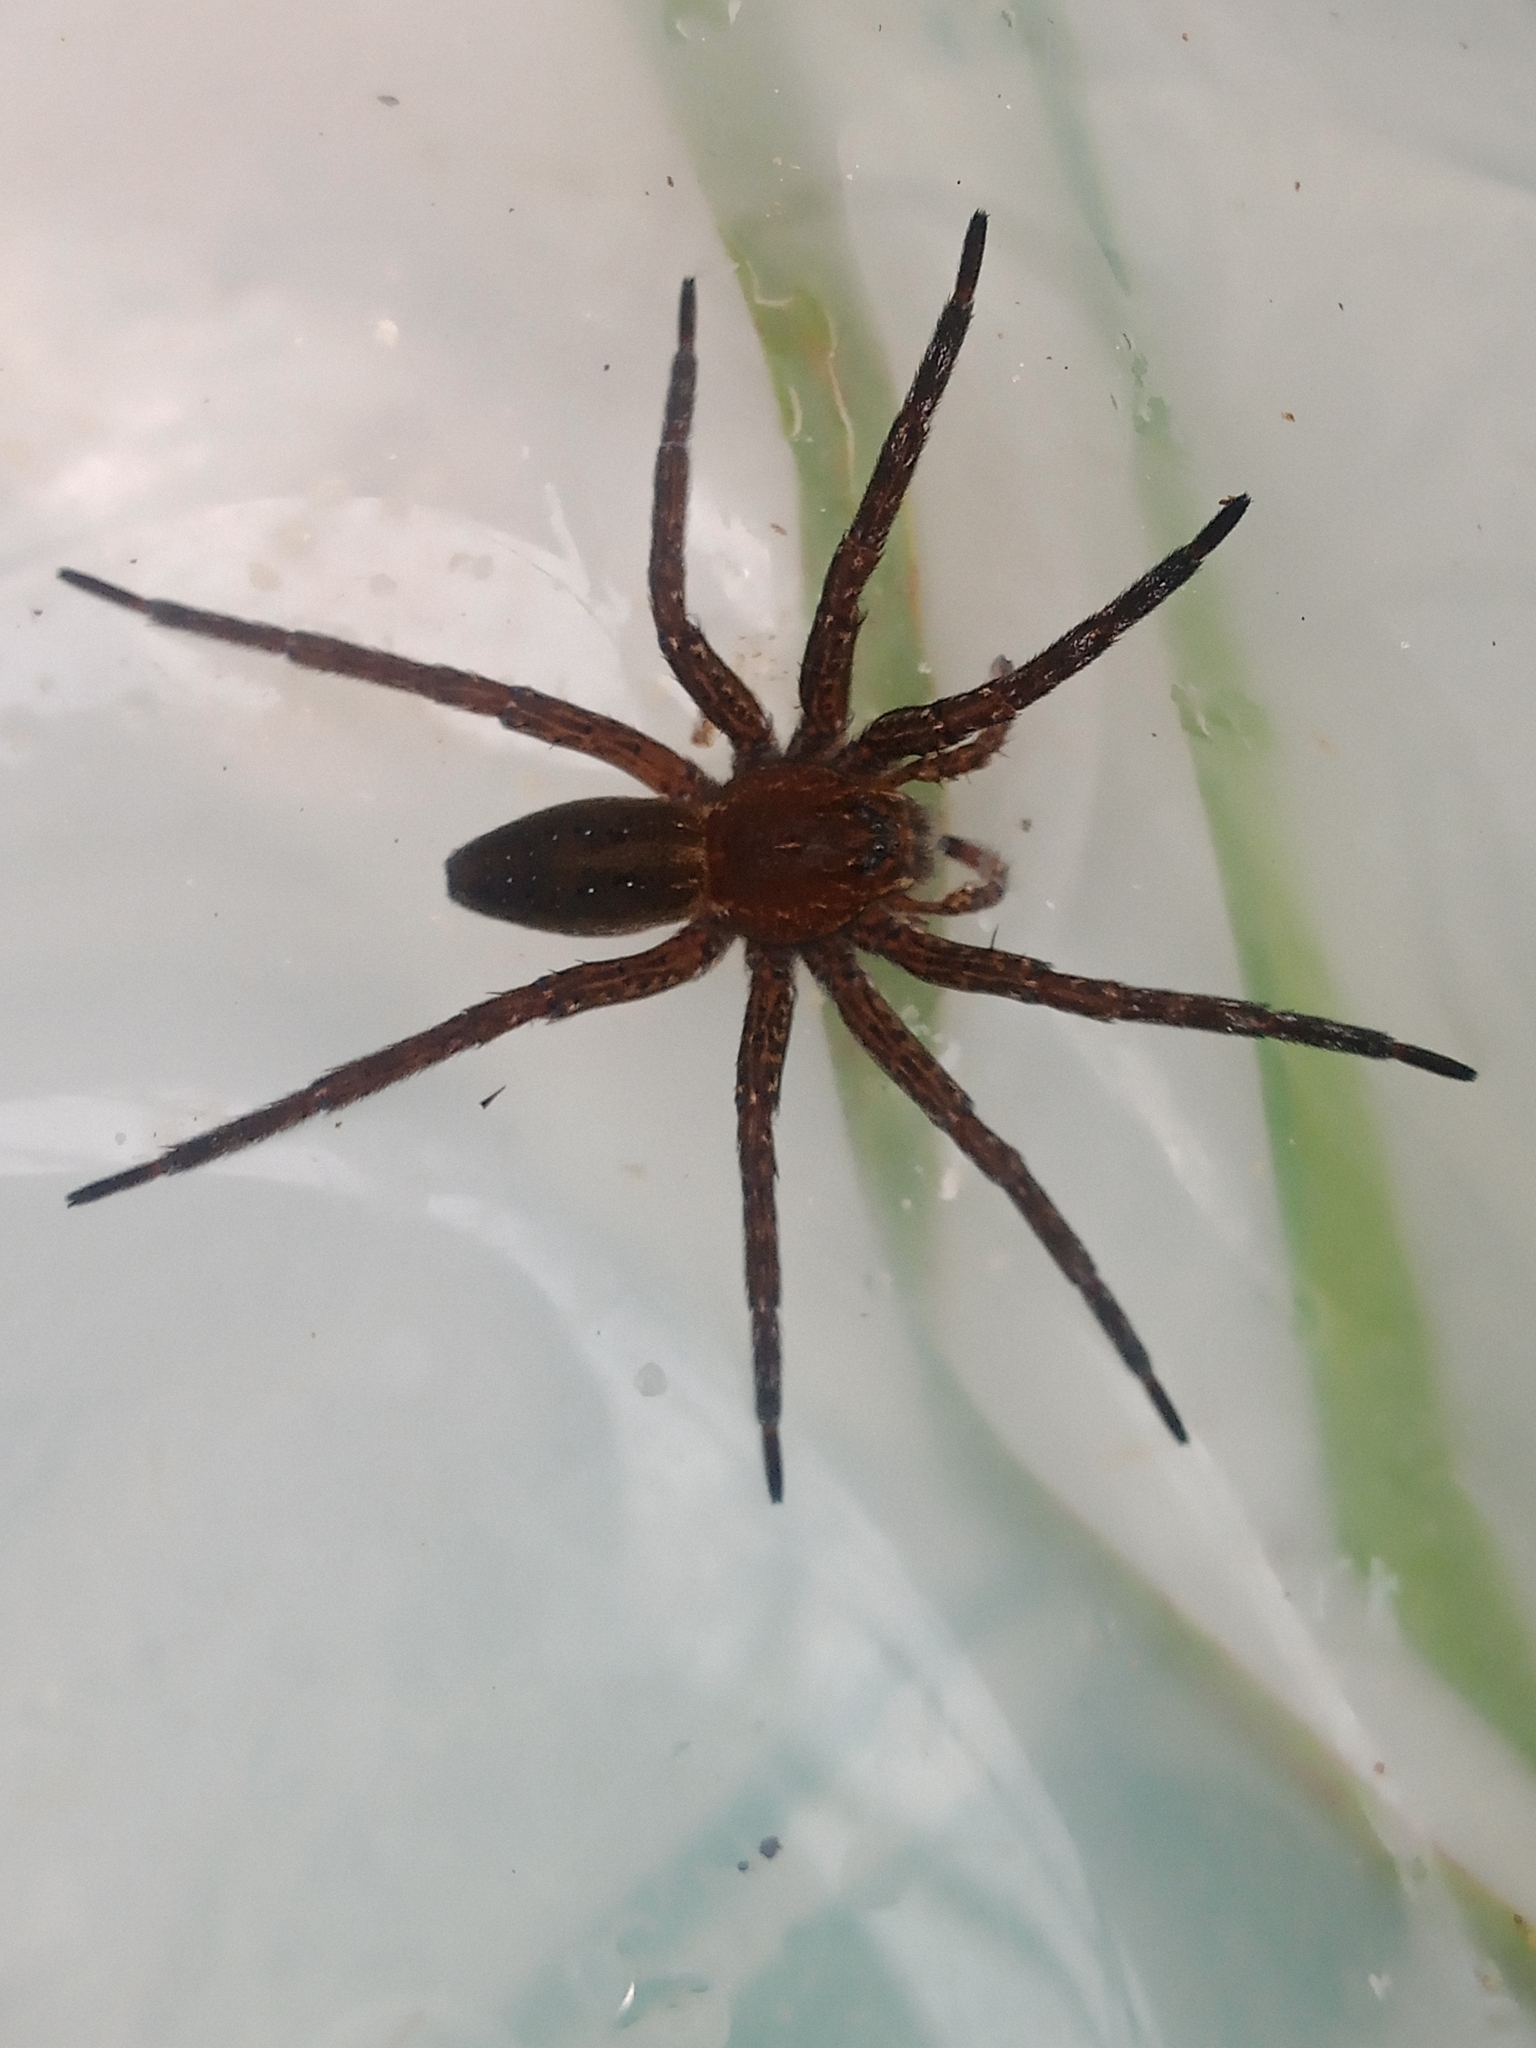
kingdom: Animalia
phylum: Arthropoda
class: Arachnida
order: Araneae
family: Pisauridae
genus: Dolomedes
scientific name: Dolomedes
